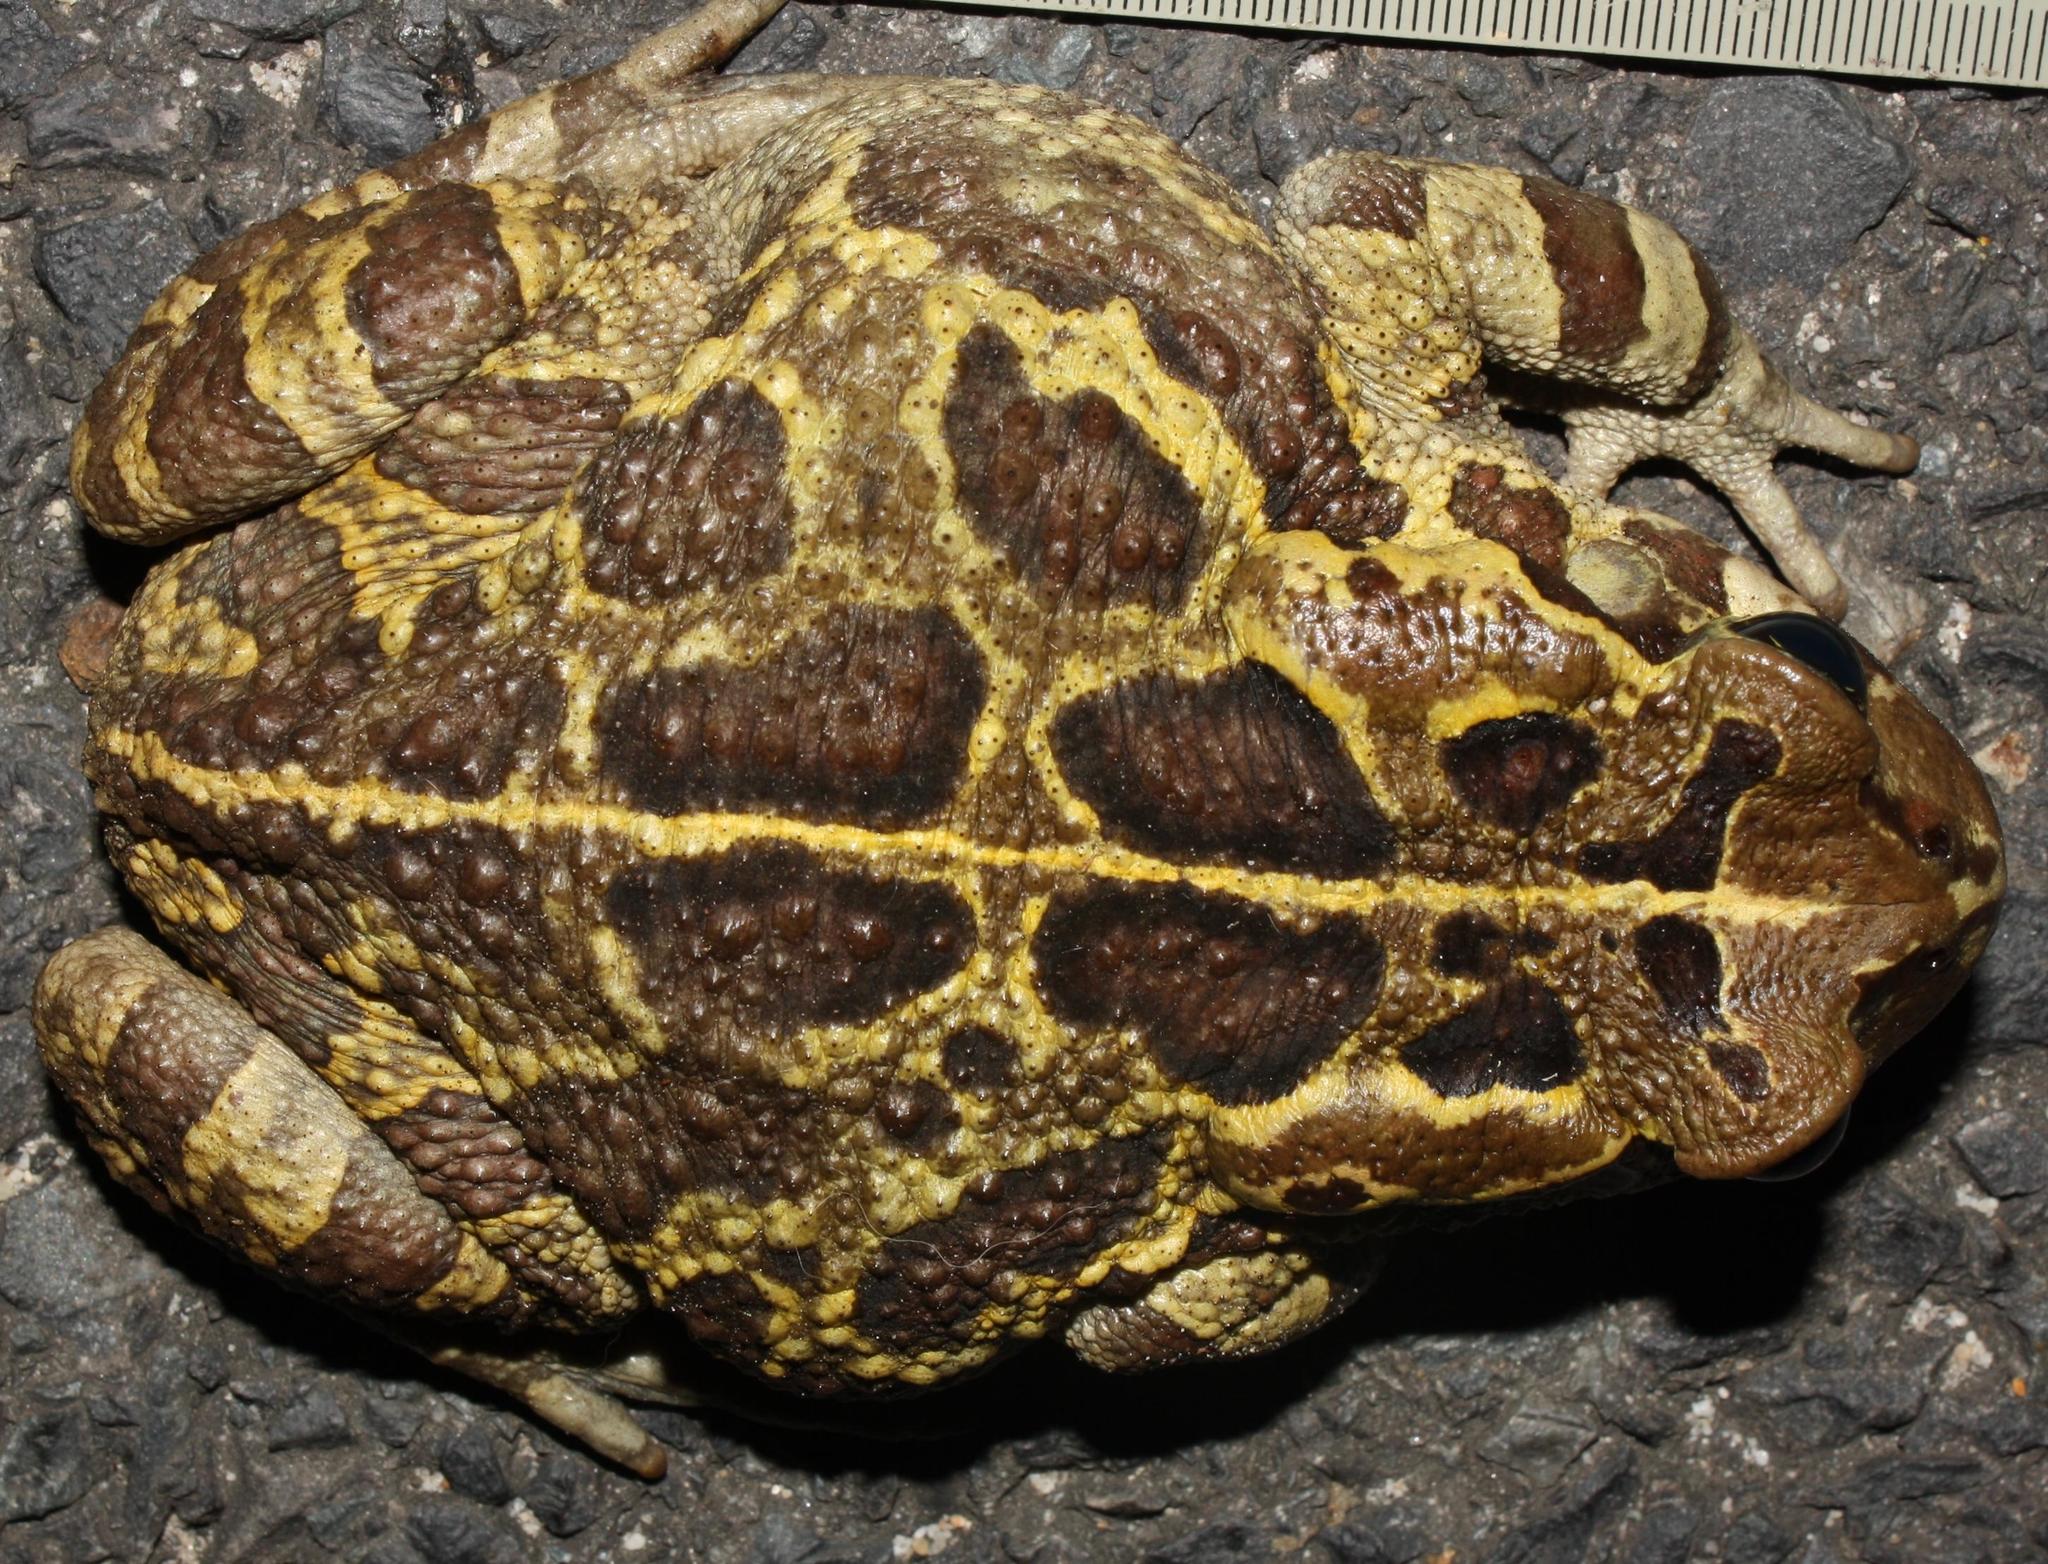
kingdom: Animalia
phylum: Chordata
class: Amphibia
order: Anura
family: Bufonidae
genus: Sclerophrys
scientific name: Sclerophrys pantherina
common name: Panther toad
